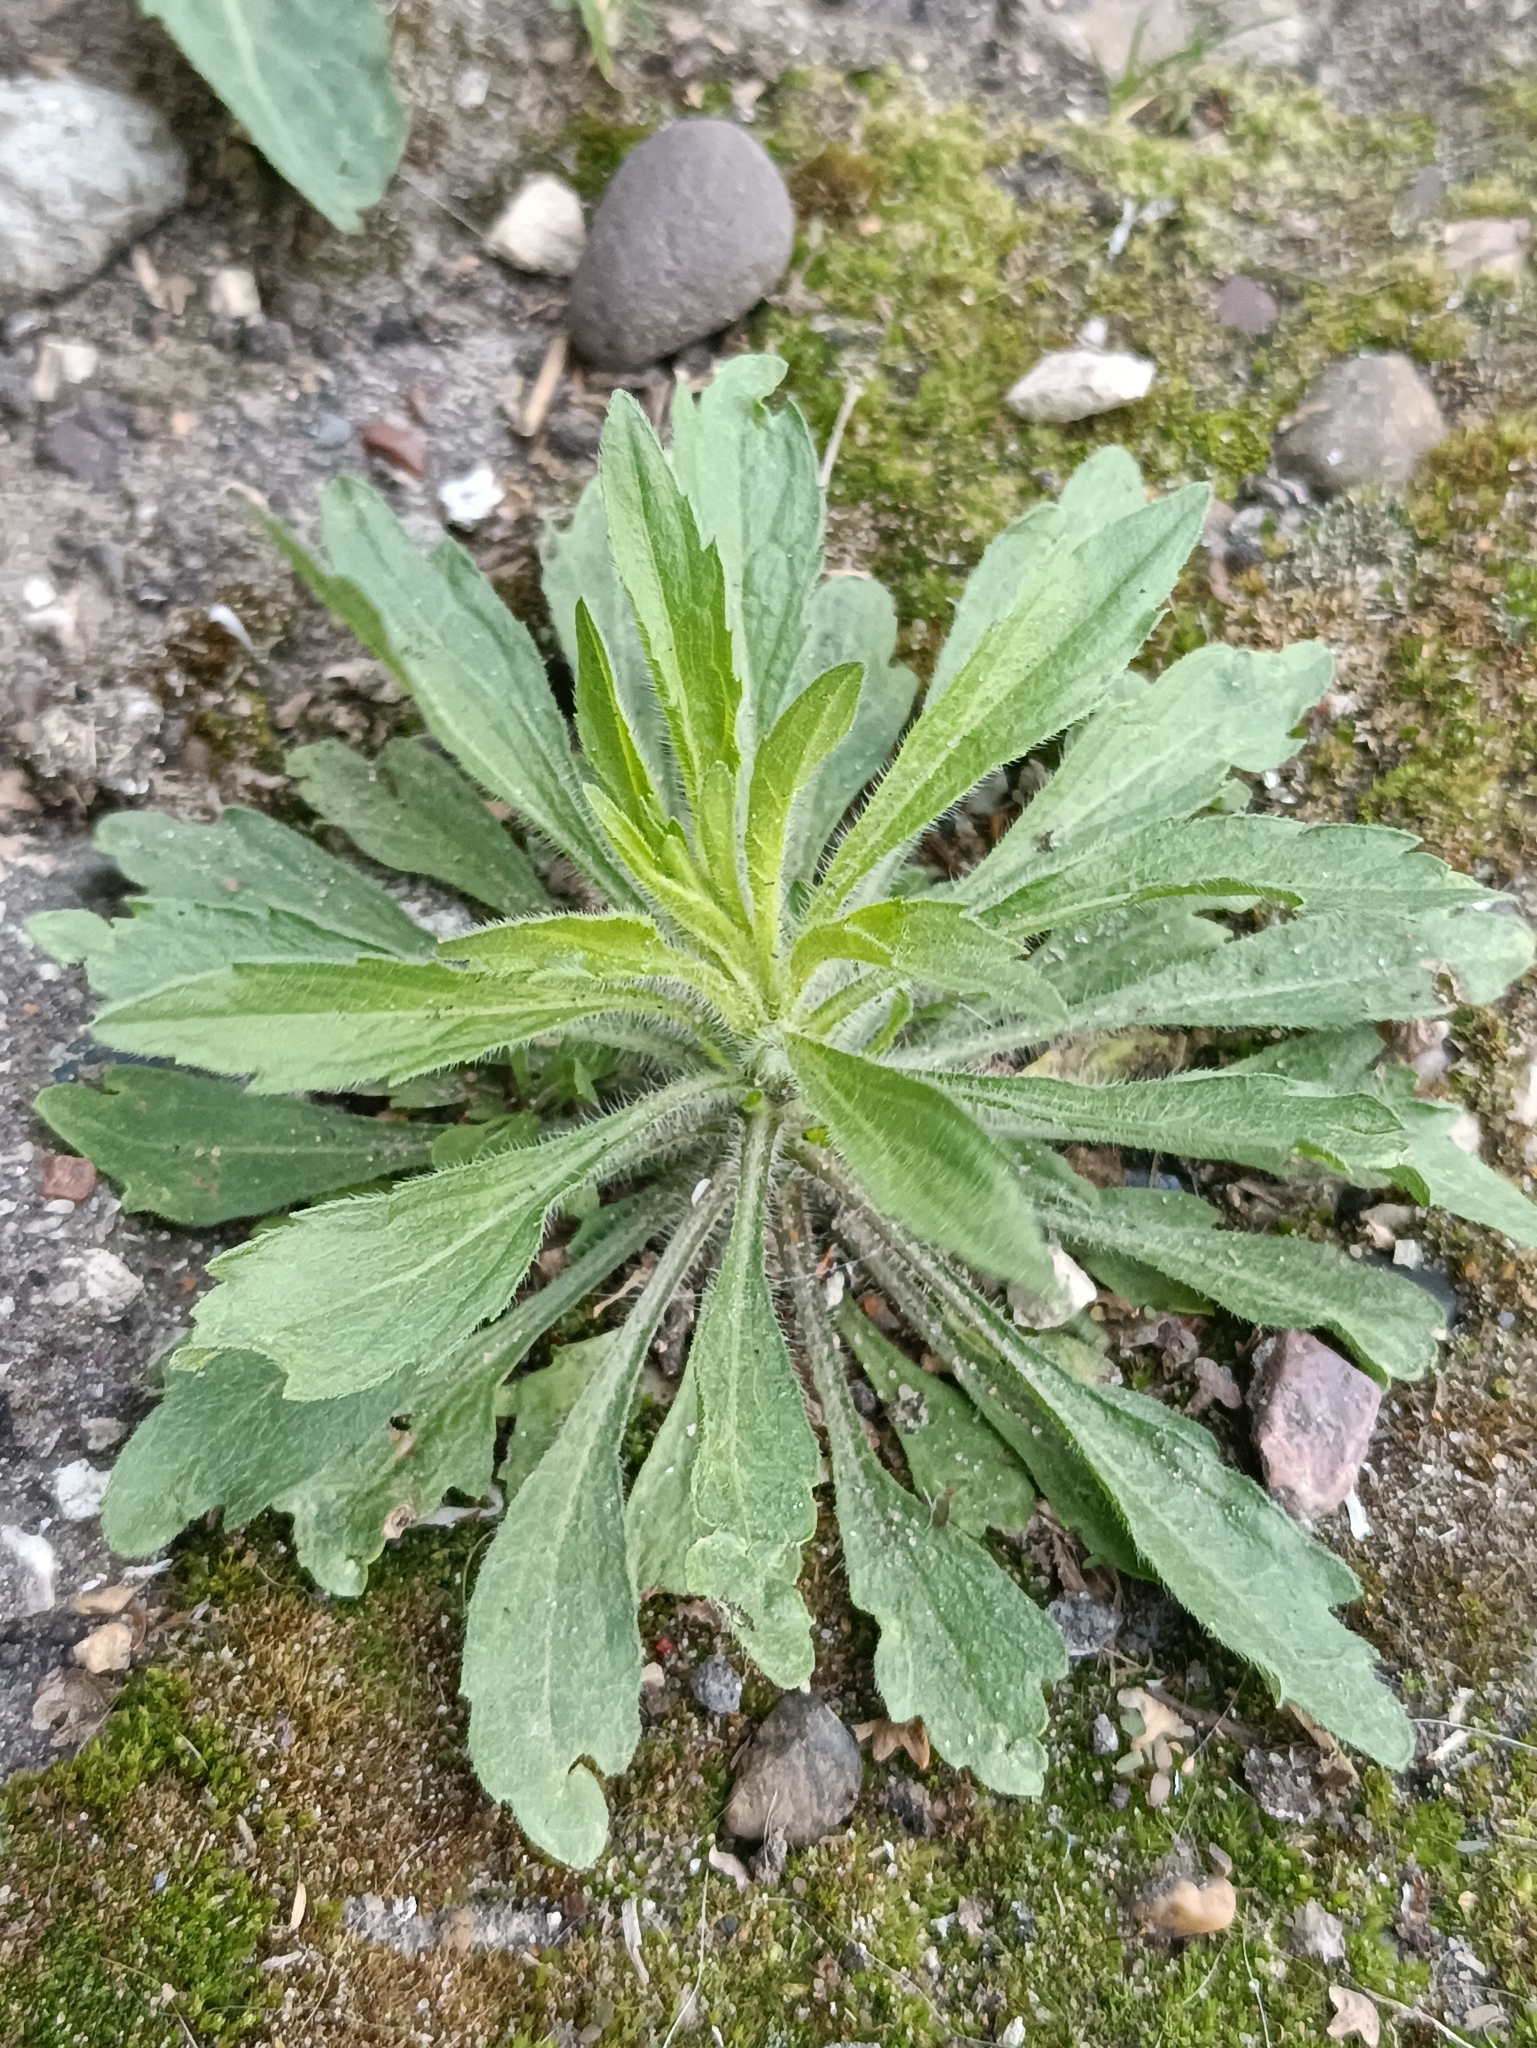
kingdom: Plantae
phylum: Tracheophyta
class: Magnoliopsida
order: Asterales
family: Asteraceae
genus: Erigeron
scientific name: Erigeron canadensis
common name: Canadian fleabane
